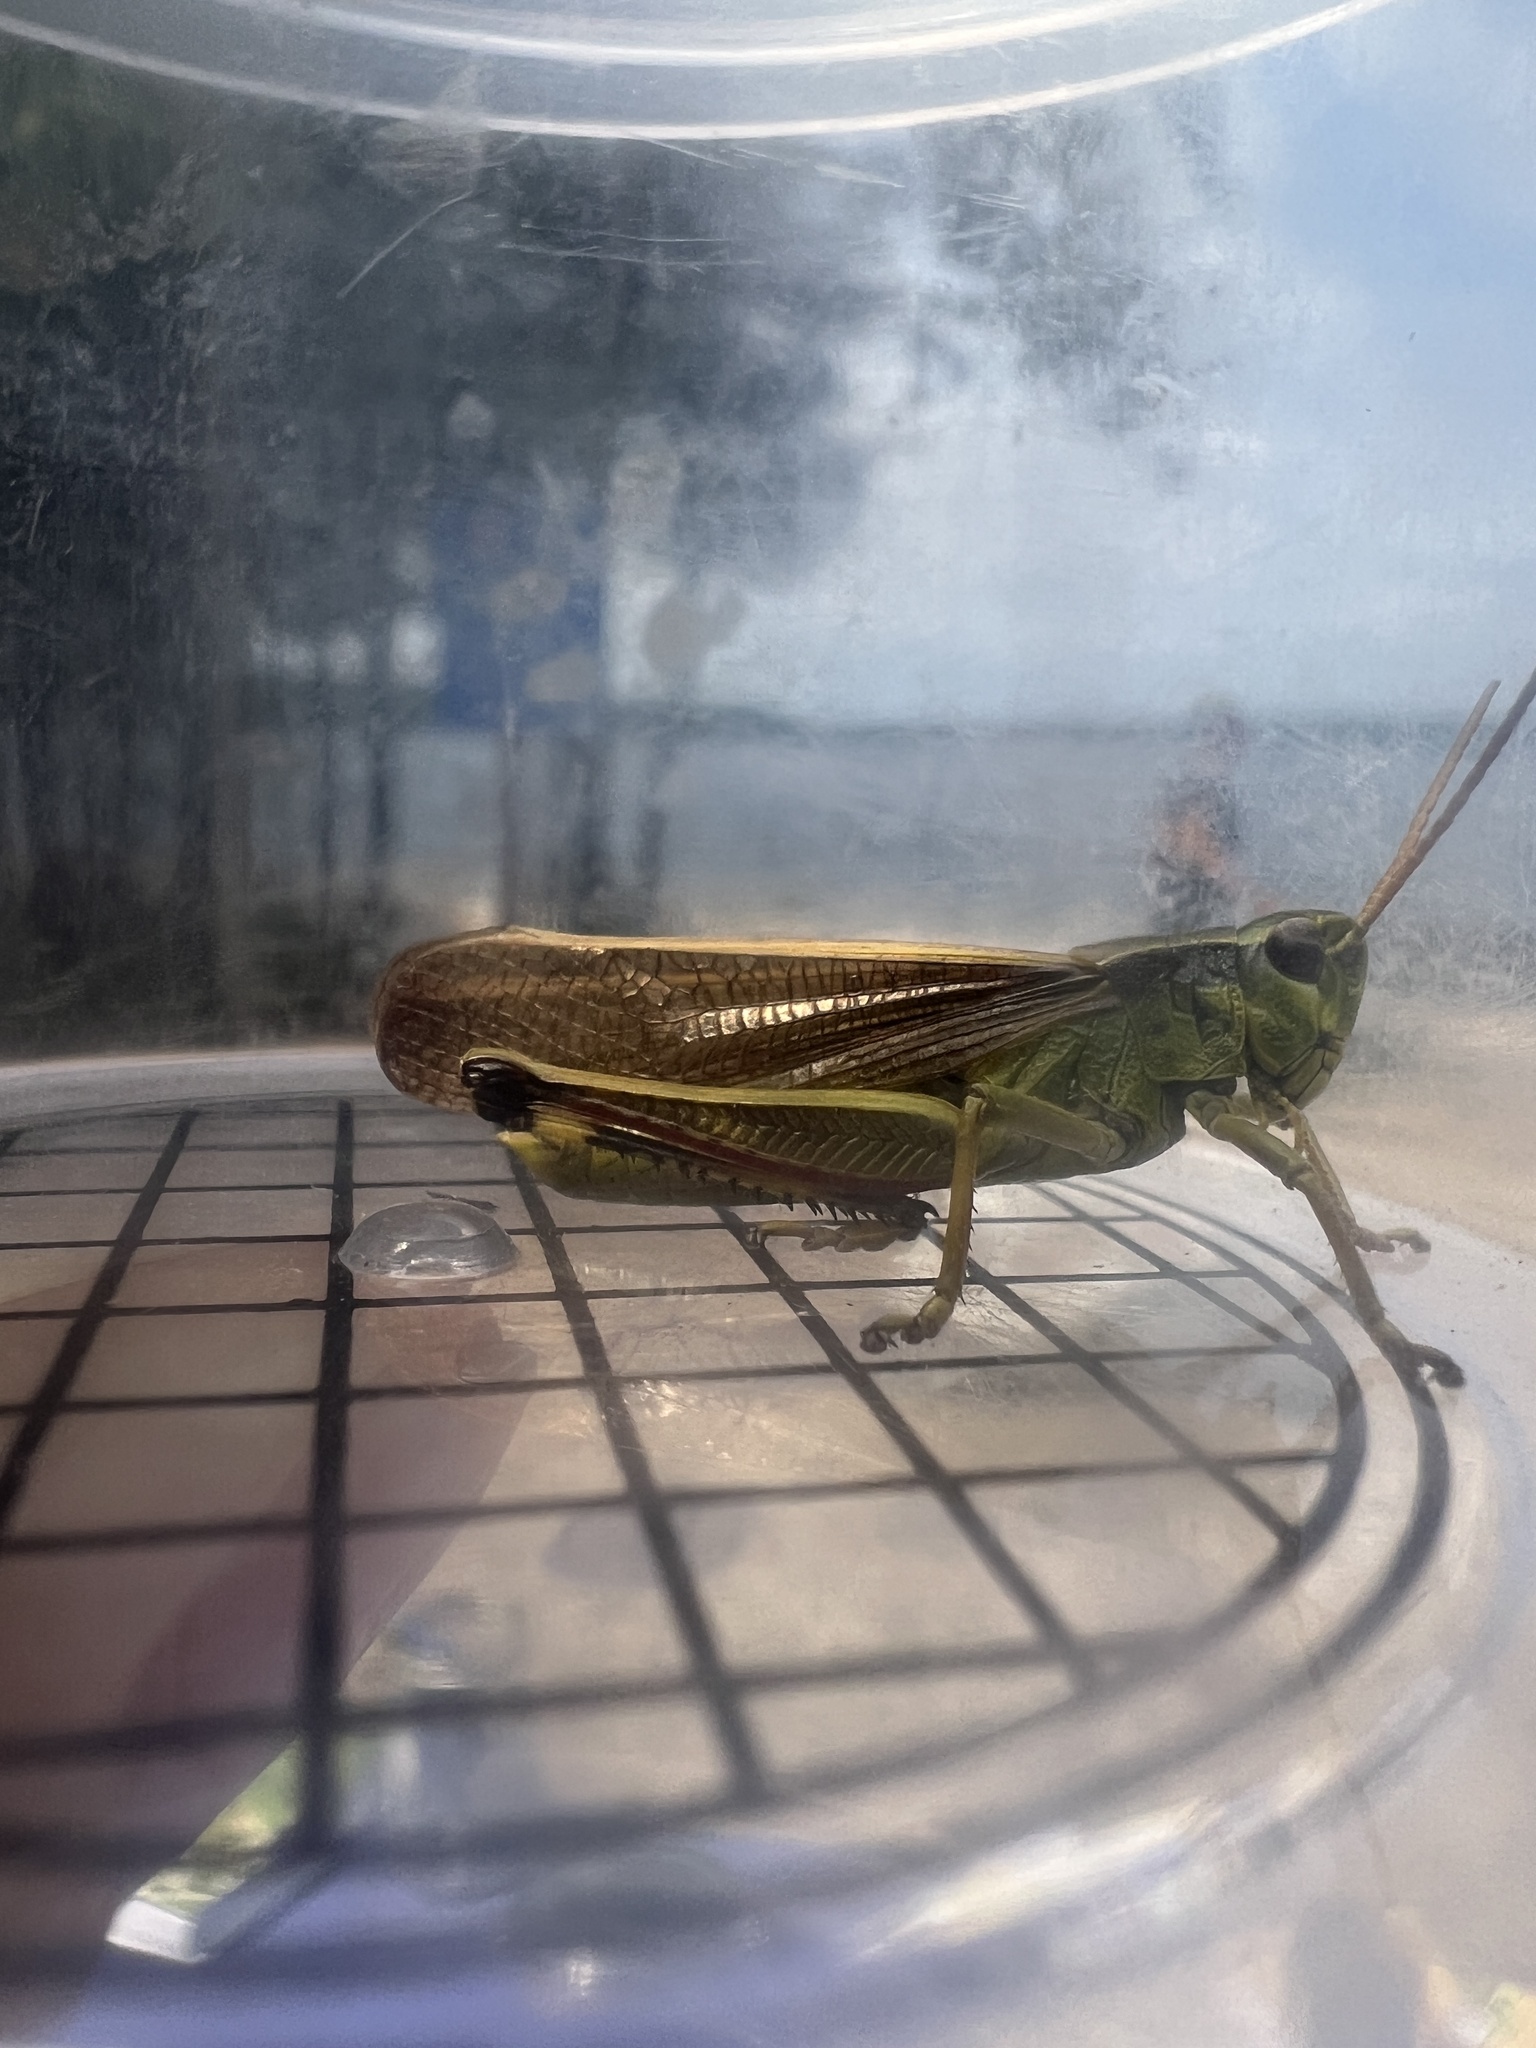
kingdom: Animalia
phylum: Arthropoda
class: Insecta
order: Orthoptera
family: Acrididae
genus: Stethophyma
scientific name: Stethophyma gracile
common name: Graceful sedge grasshopper
